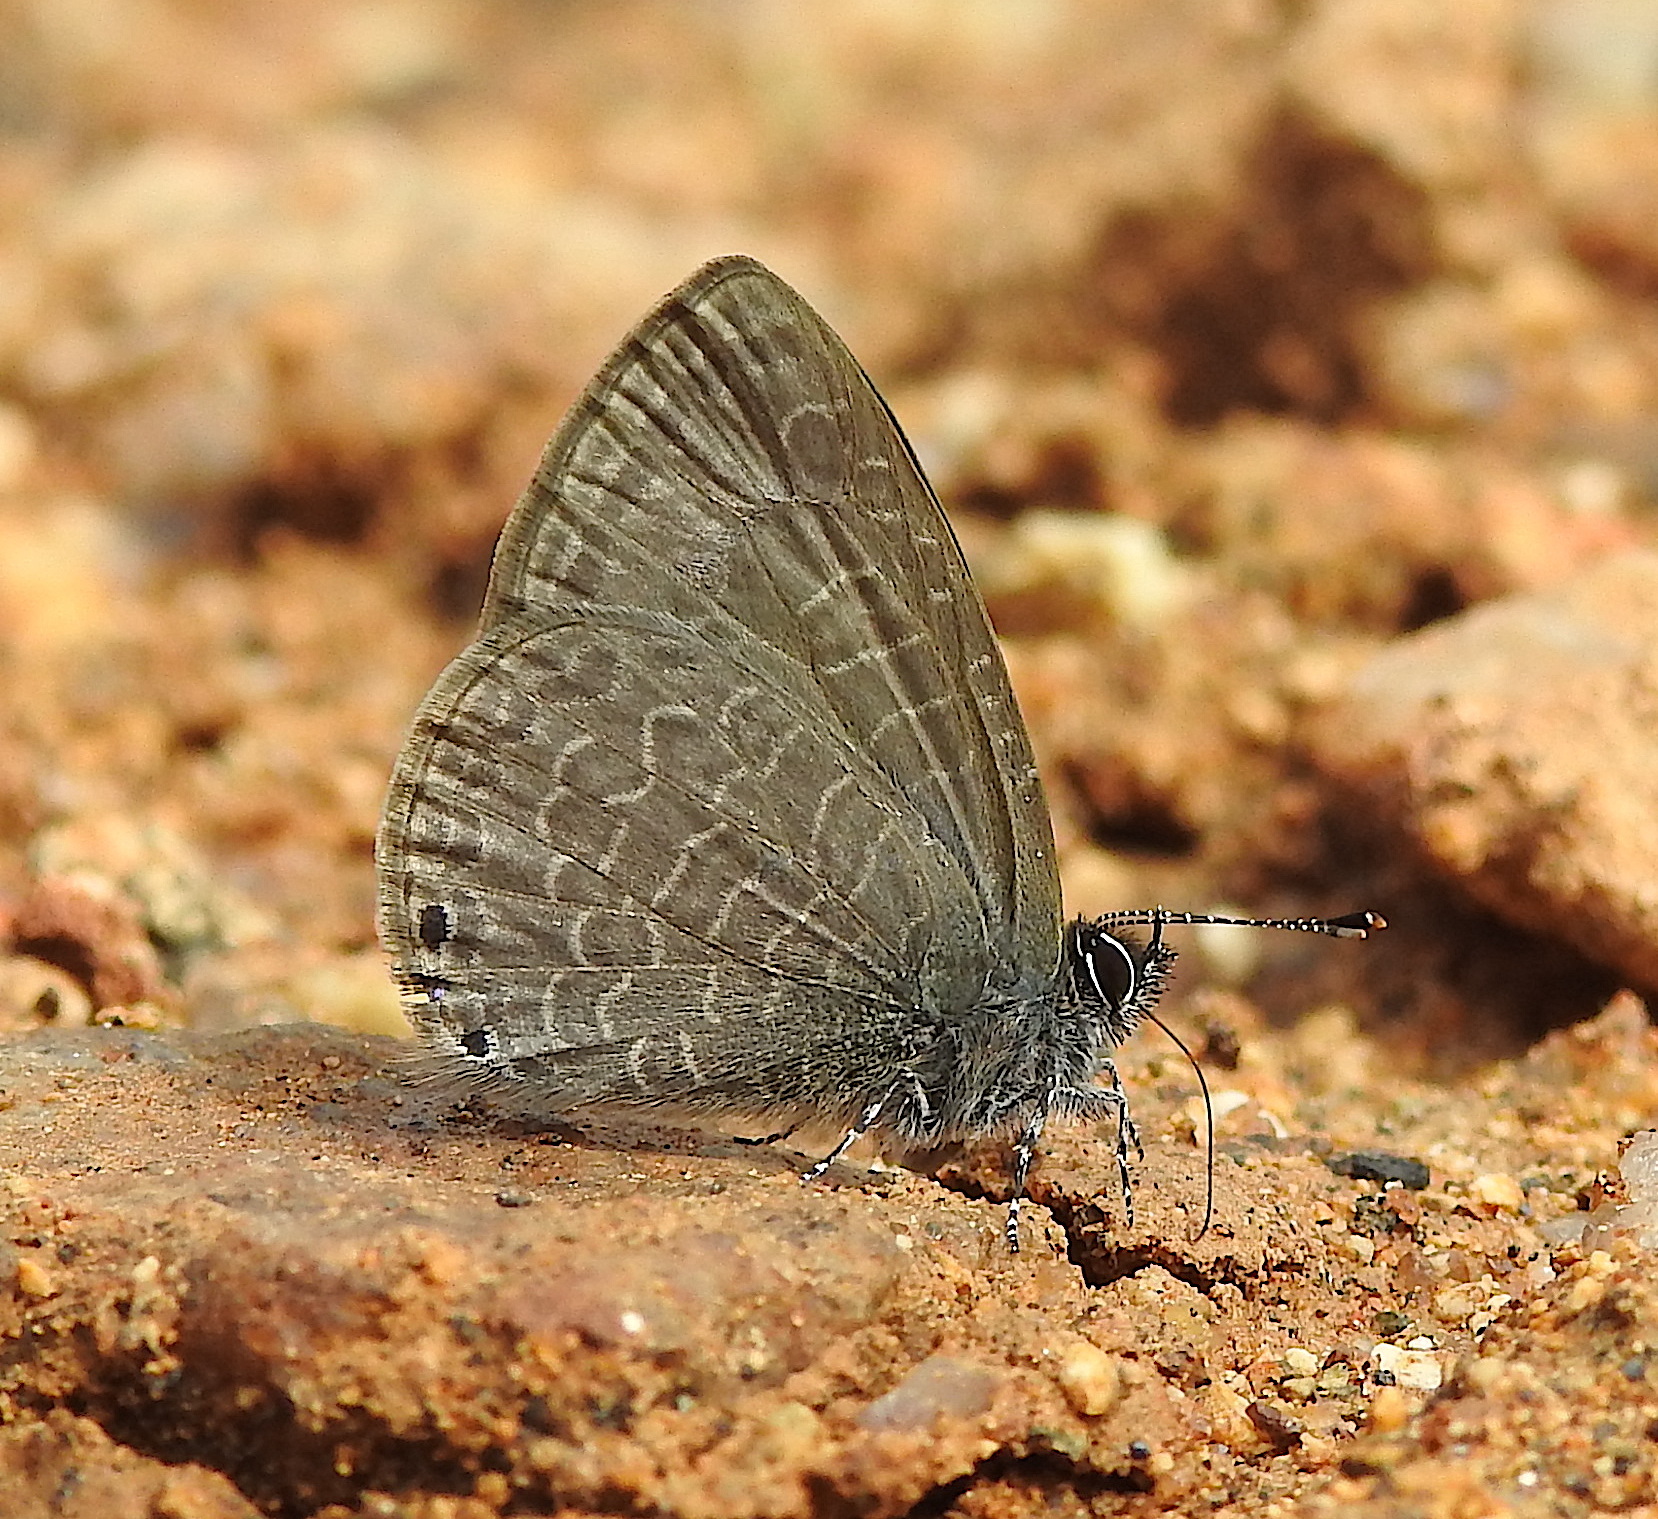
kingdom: Animalia
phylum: Arthropoda
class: Insecta
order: Lepidoptera
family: Lycaenidae
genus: Petrelaea
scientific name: Petrelaea dana
